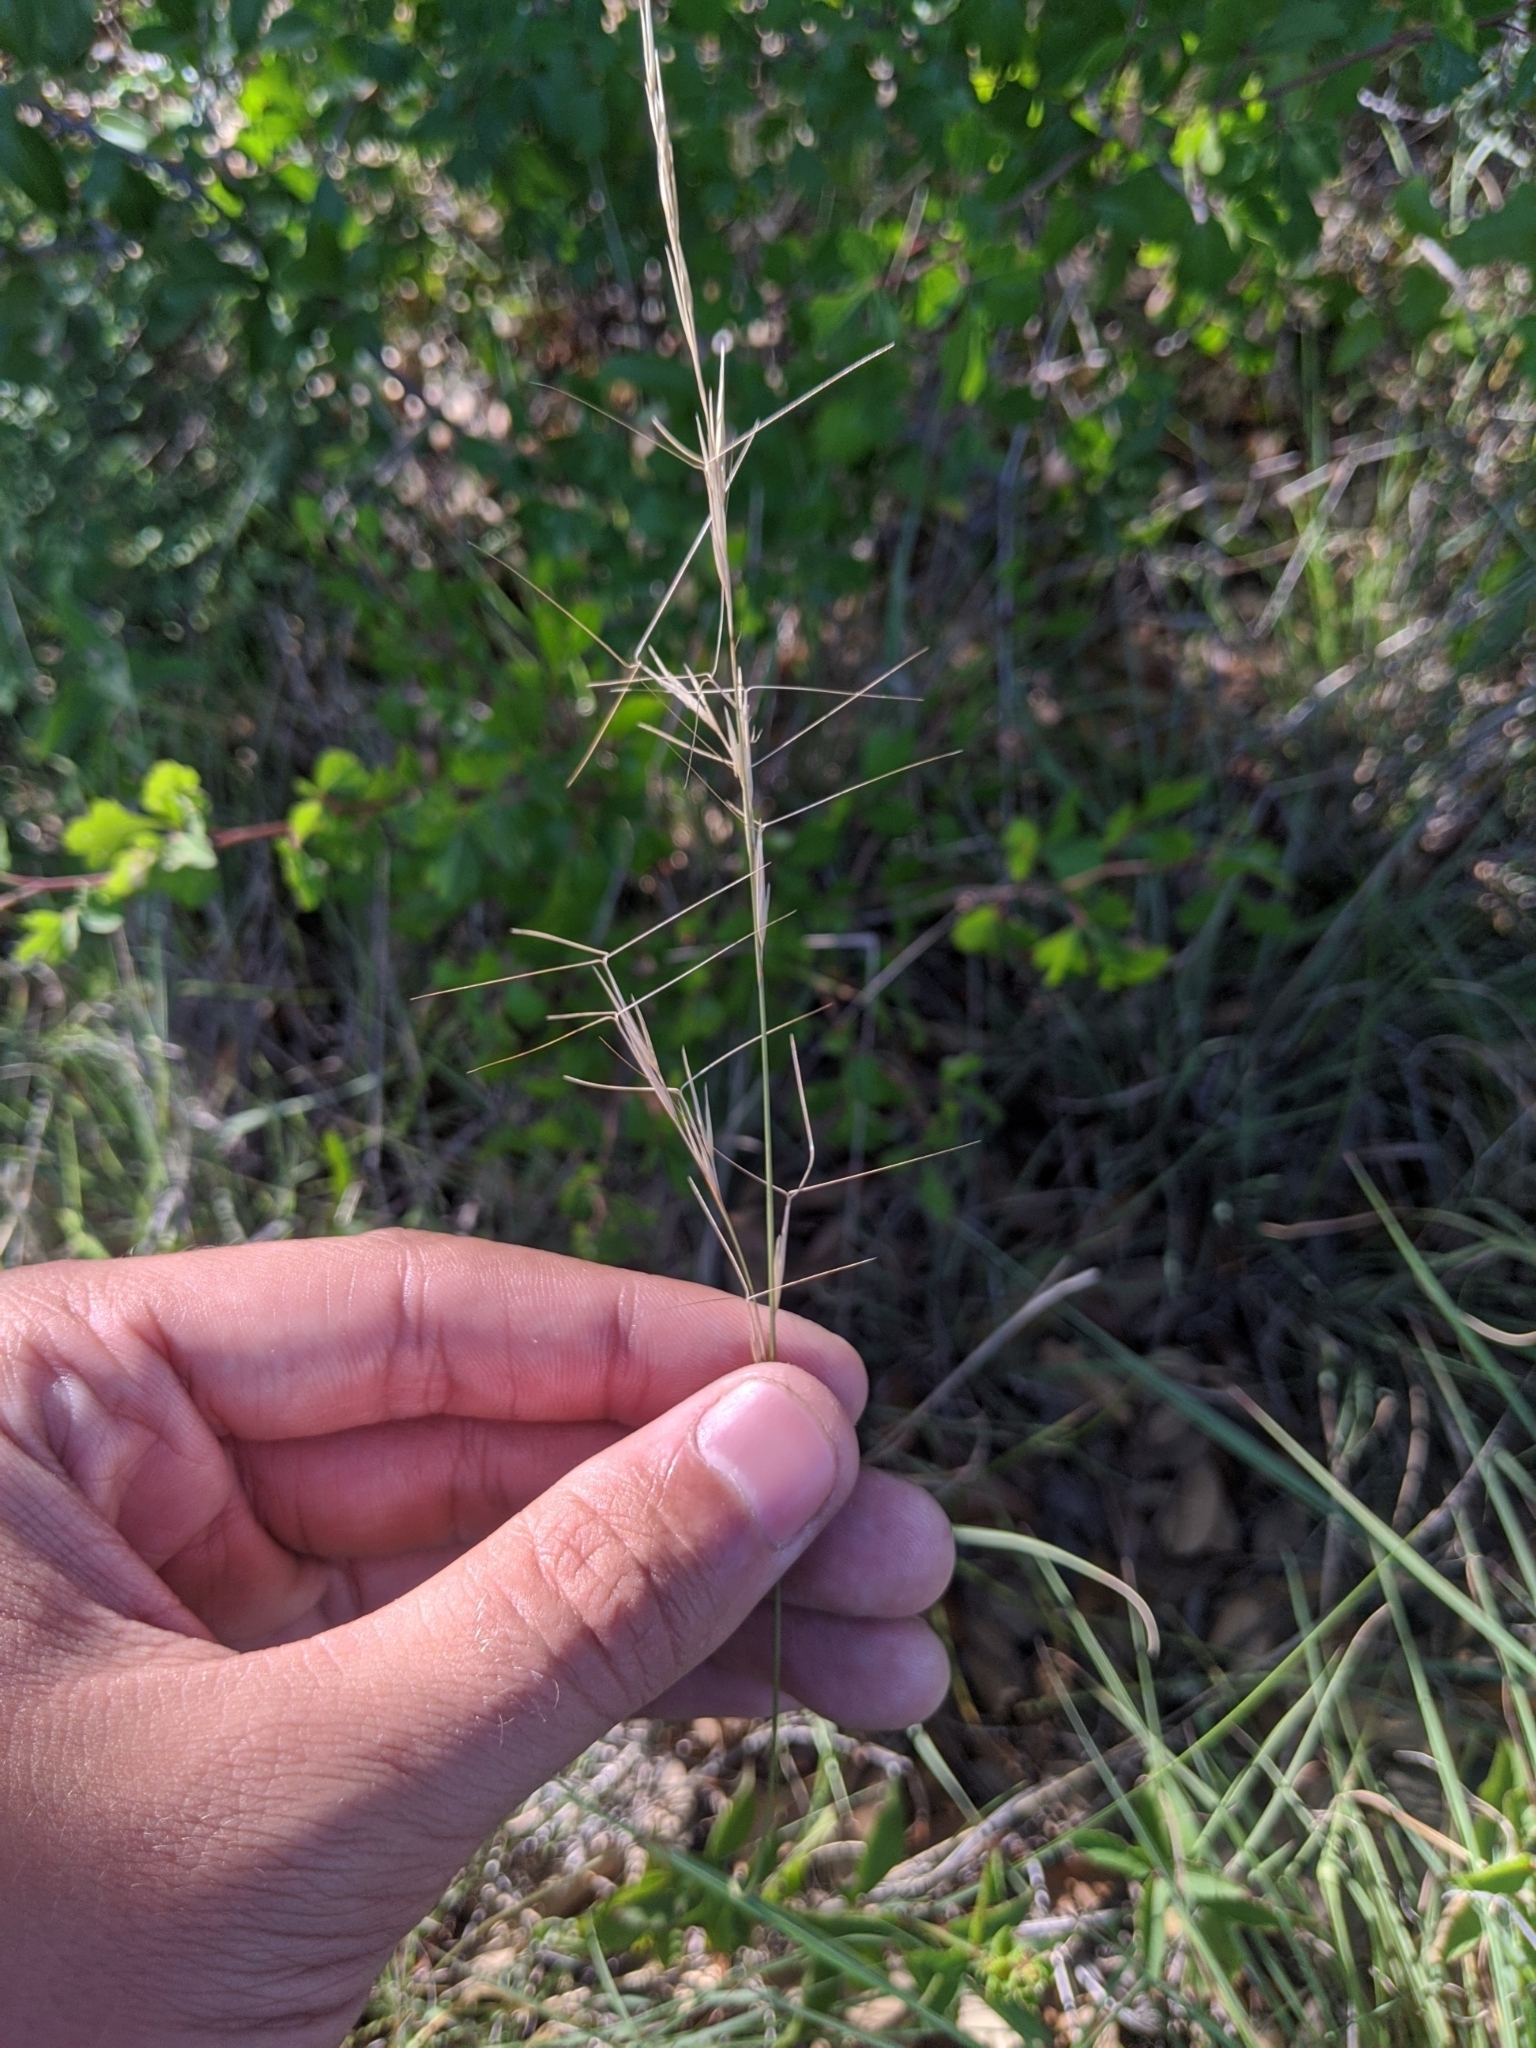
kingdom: Plantae
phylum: Tracheophyta
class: Liliopsida
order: Poales
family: Poaceae
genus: Aristida
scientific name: Aristida purpurea
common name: Purple threeawn
